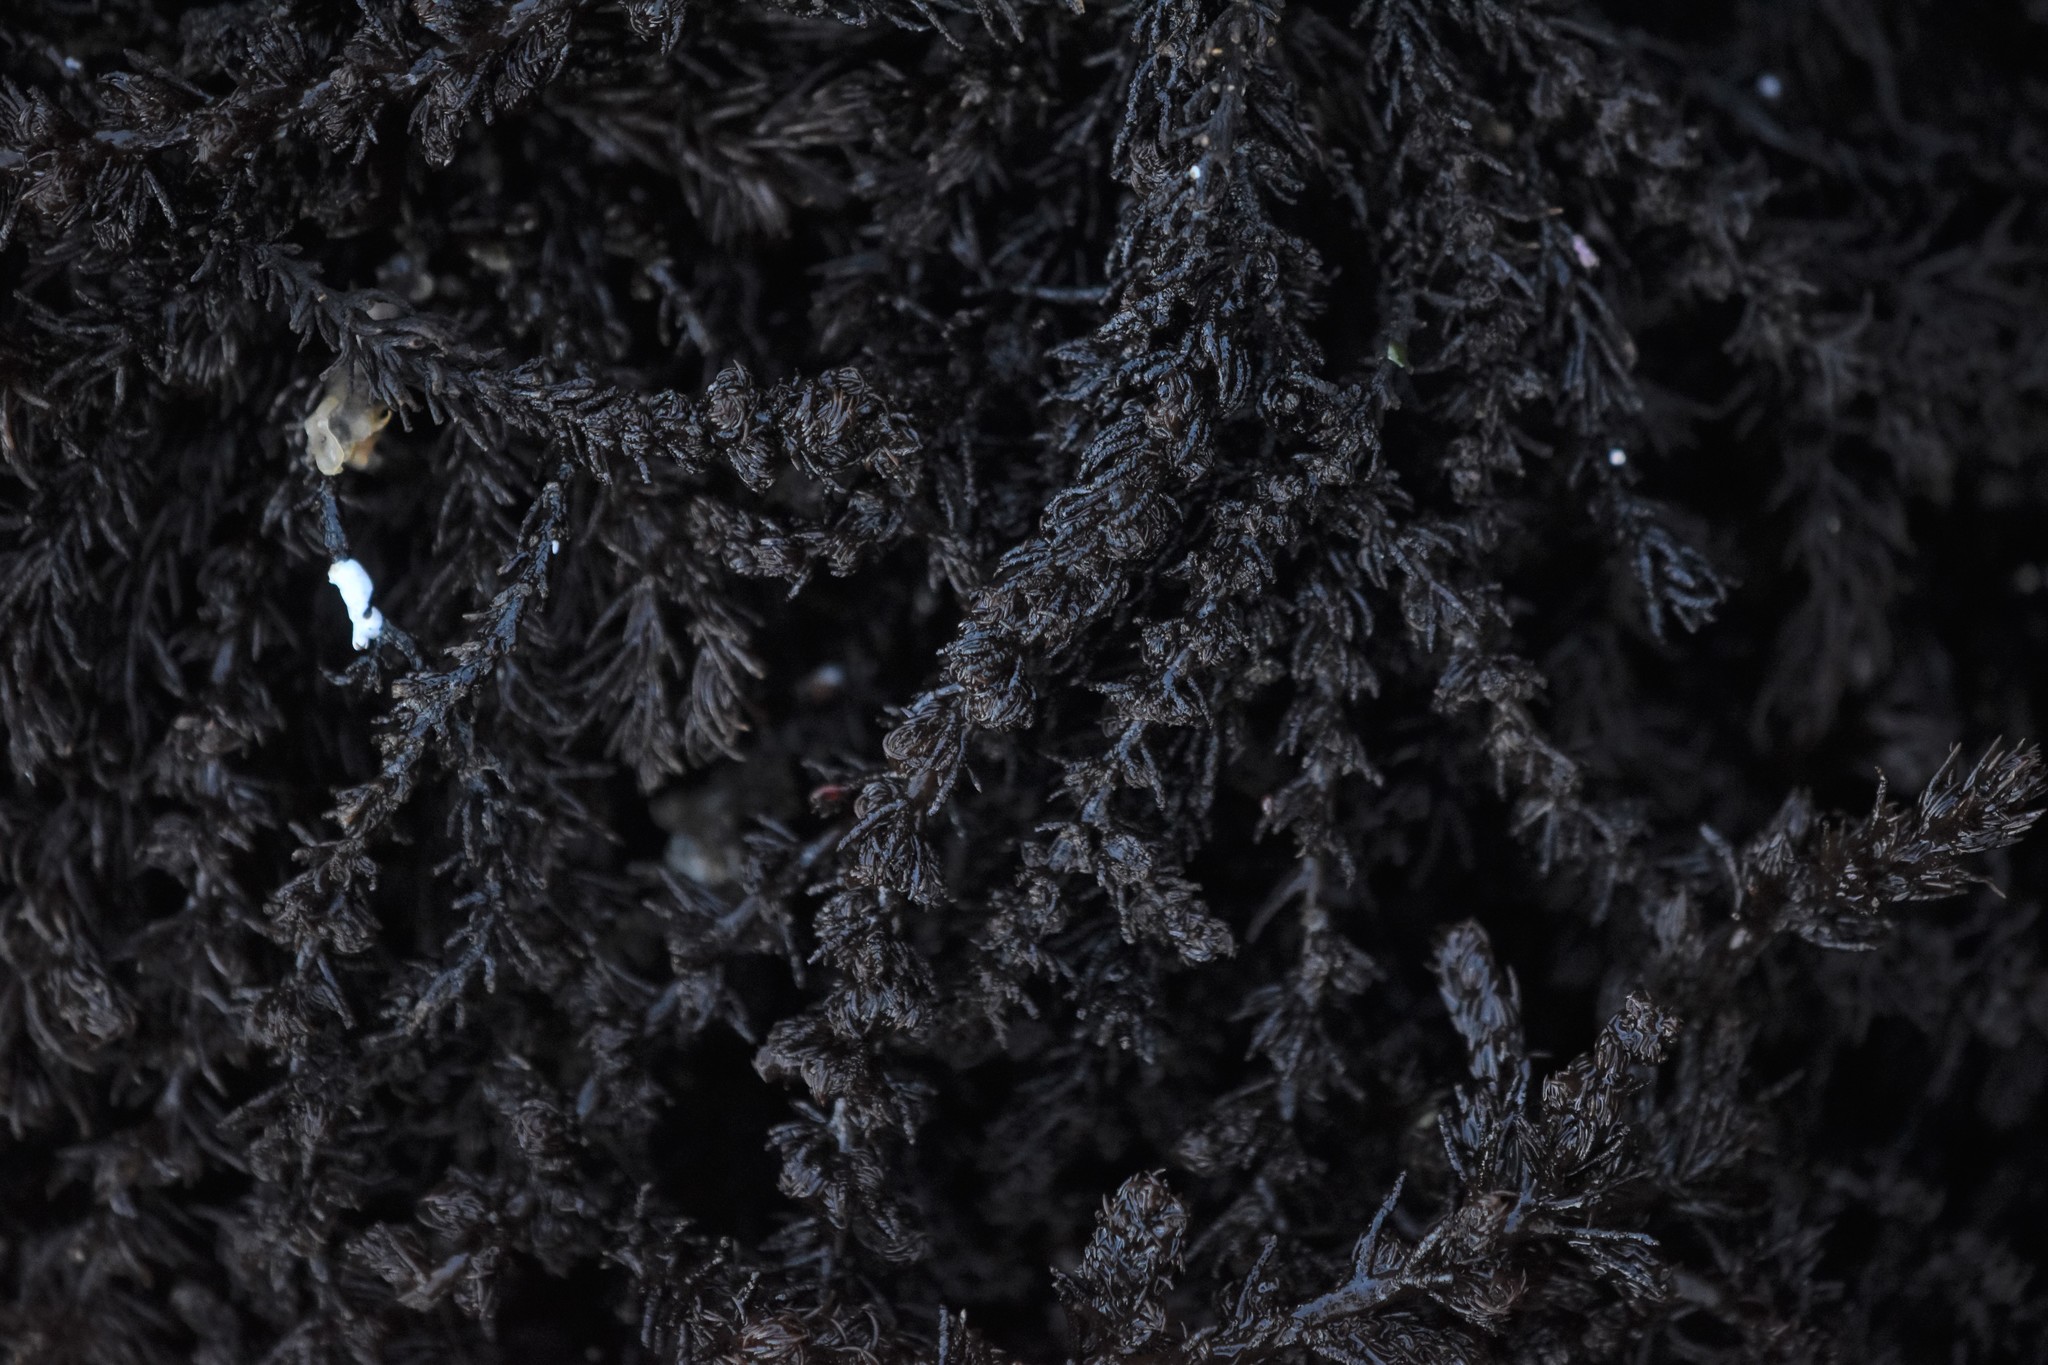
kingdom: Plantae
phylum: Rhodophyta
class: Florideophyceae
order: Ceramiales
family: Rhodomelaceae
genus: Neorhodomela
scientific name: Neorhodomela larix
